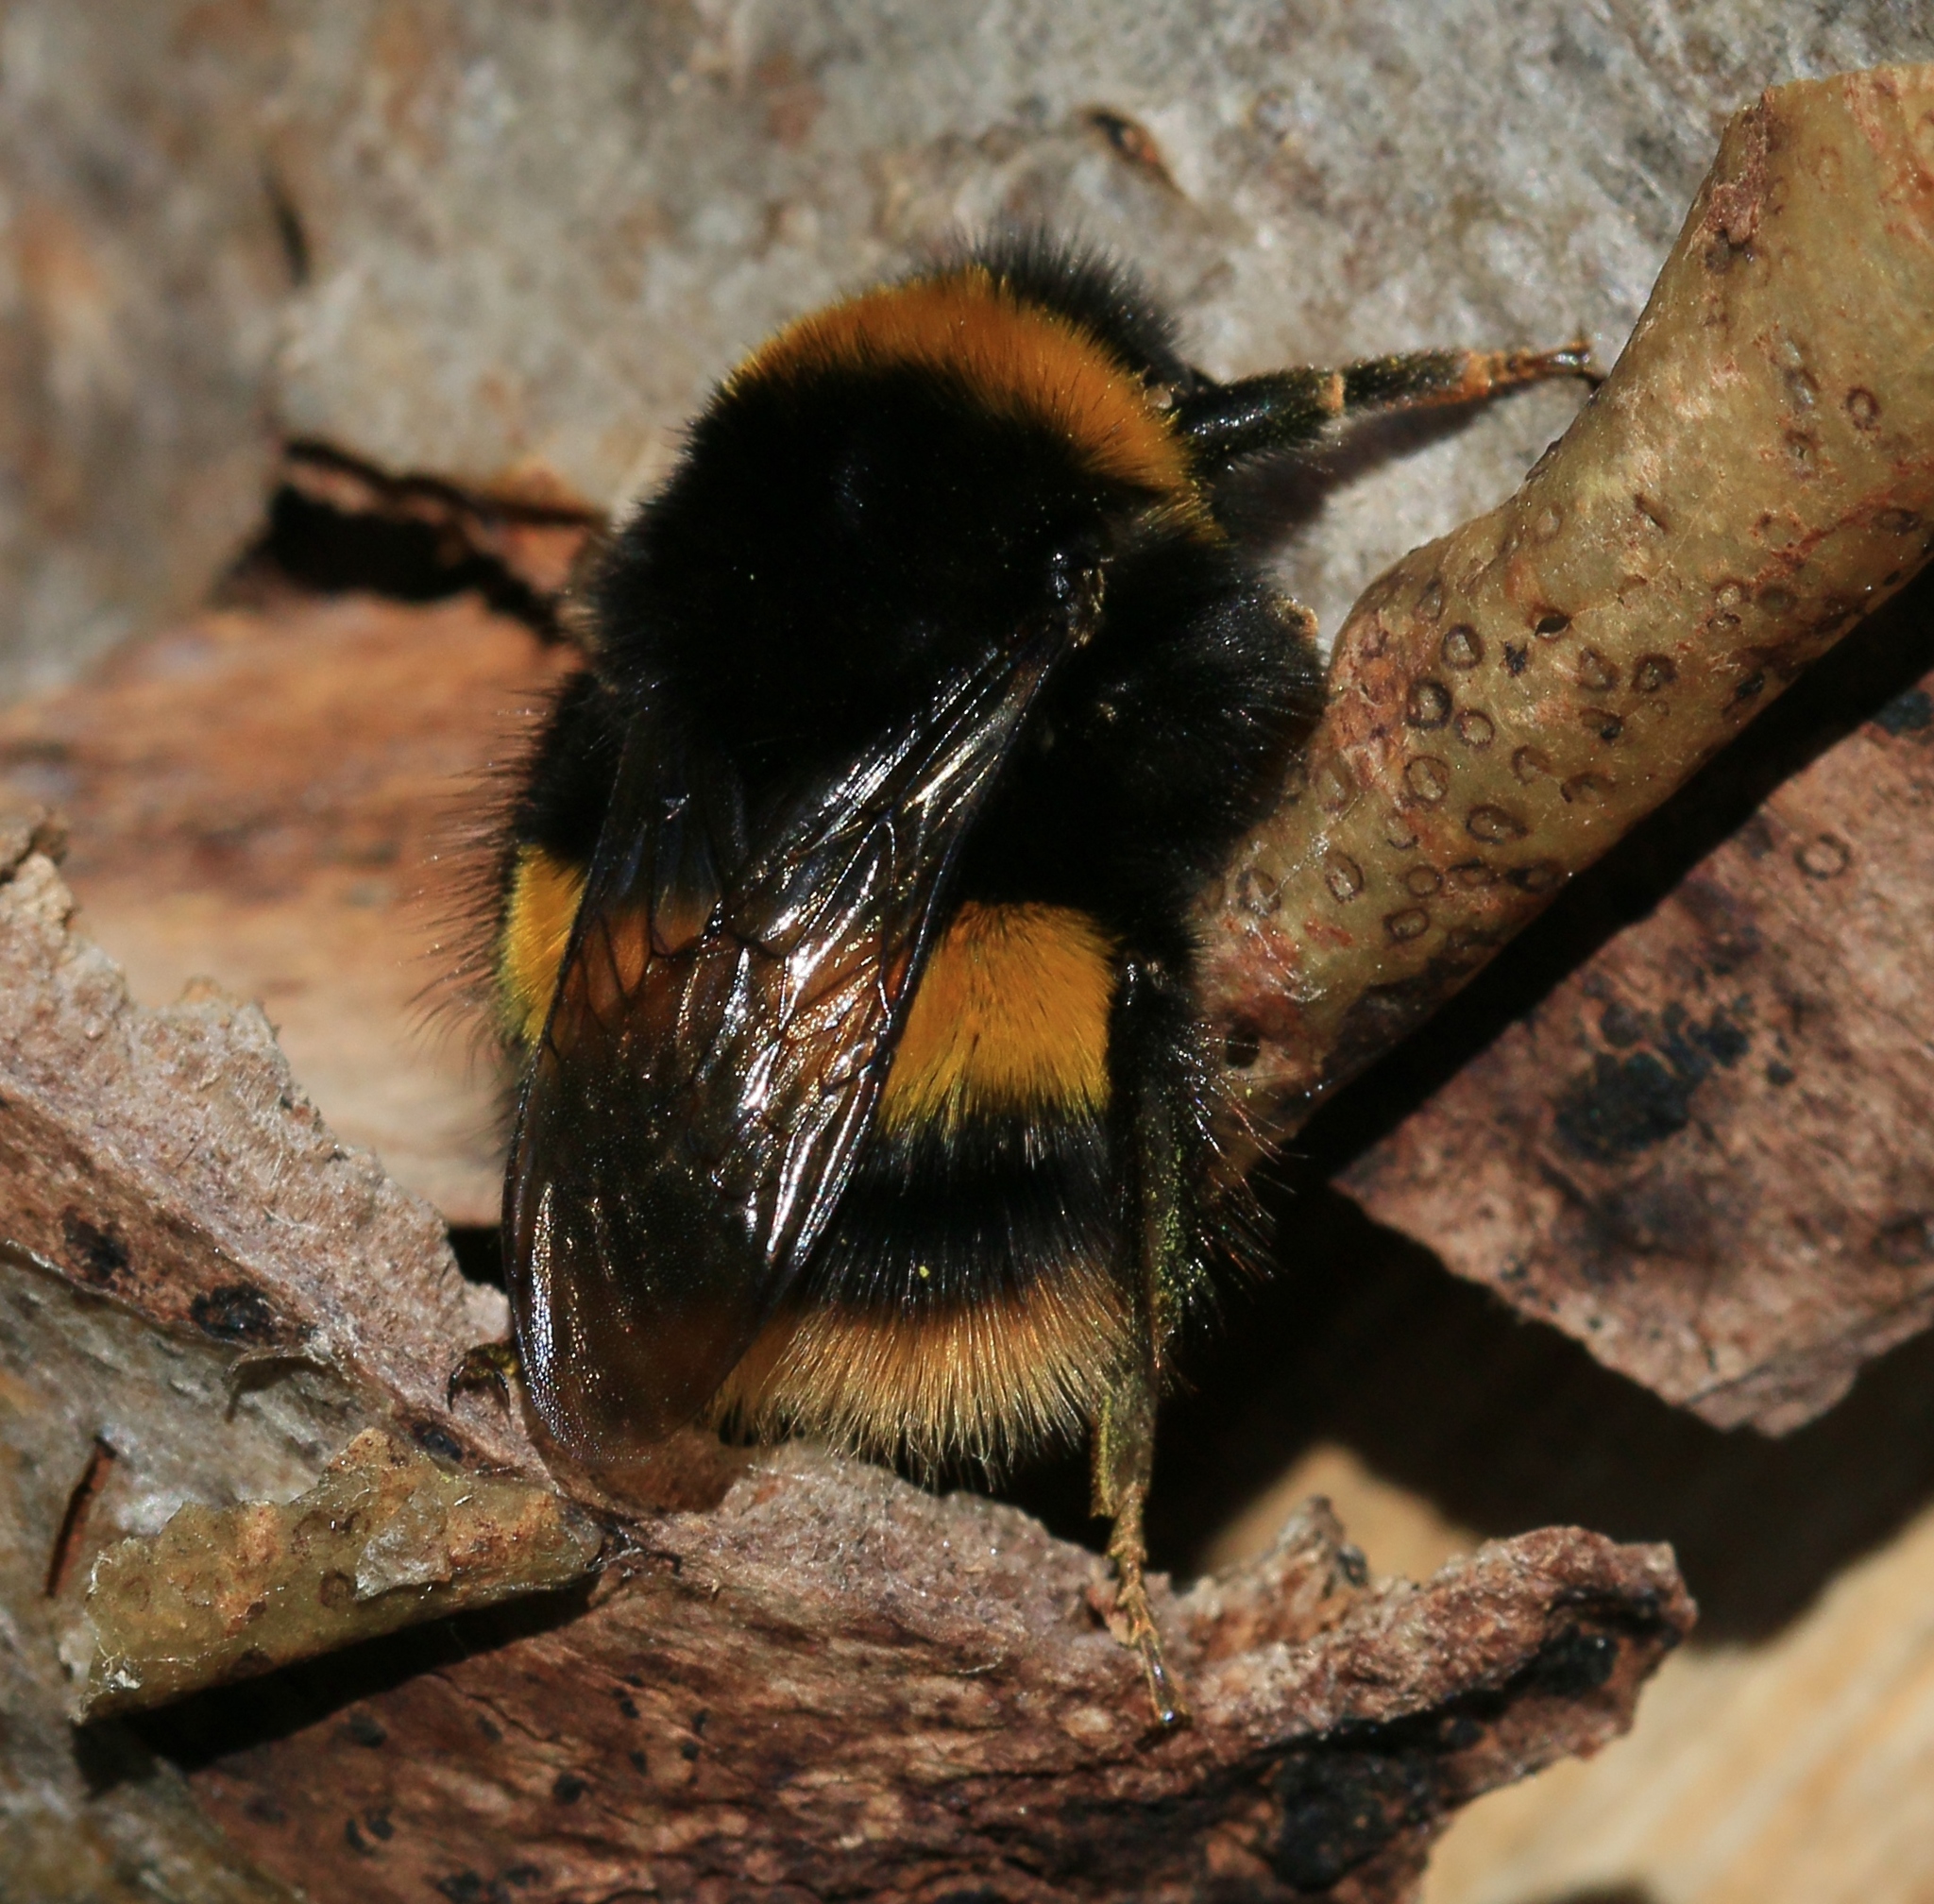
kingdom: Animalia
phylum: Arthropoda
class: Insecta
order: Hymenoptera
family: Apidae
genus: Bombus
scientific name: Bombus terrestris
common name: Buff-tailed bumblebee
